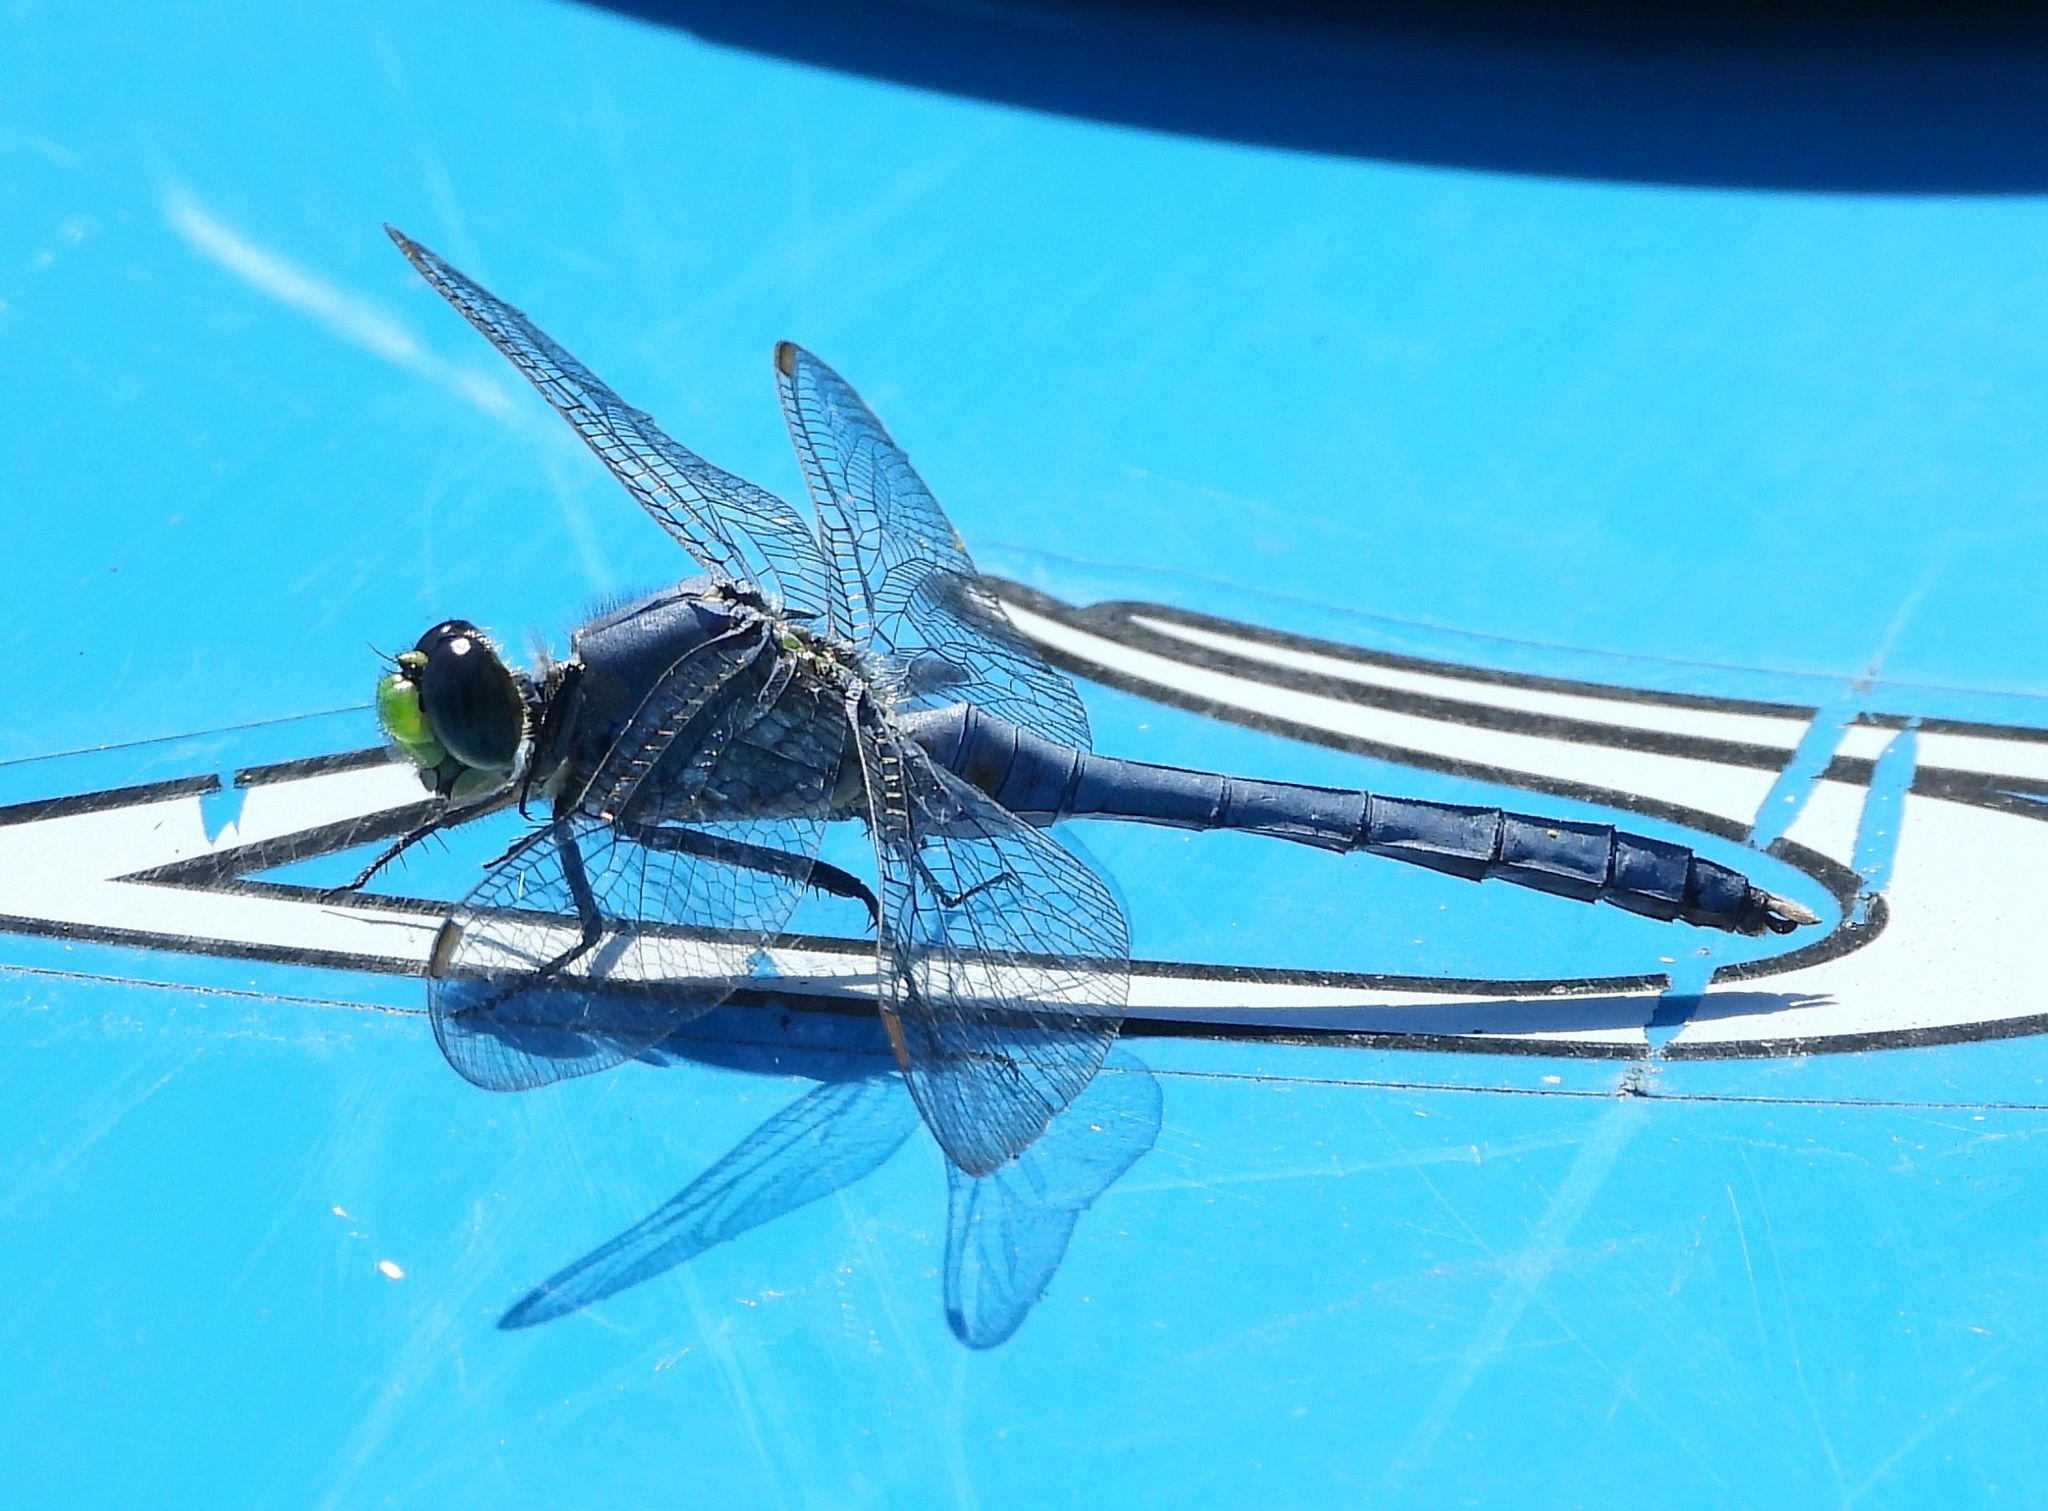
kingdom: Animalia
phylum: Arthropoda
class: Insecta
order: Odonata
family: Libellulidae
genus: Erythemis
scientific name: Erythemis simplicicollis
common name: Eastern pondhawk
